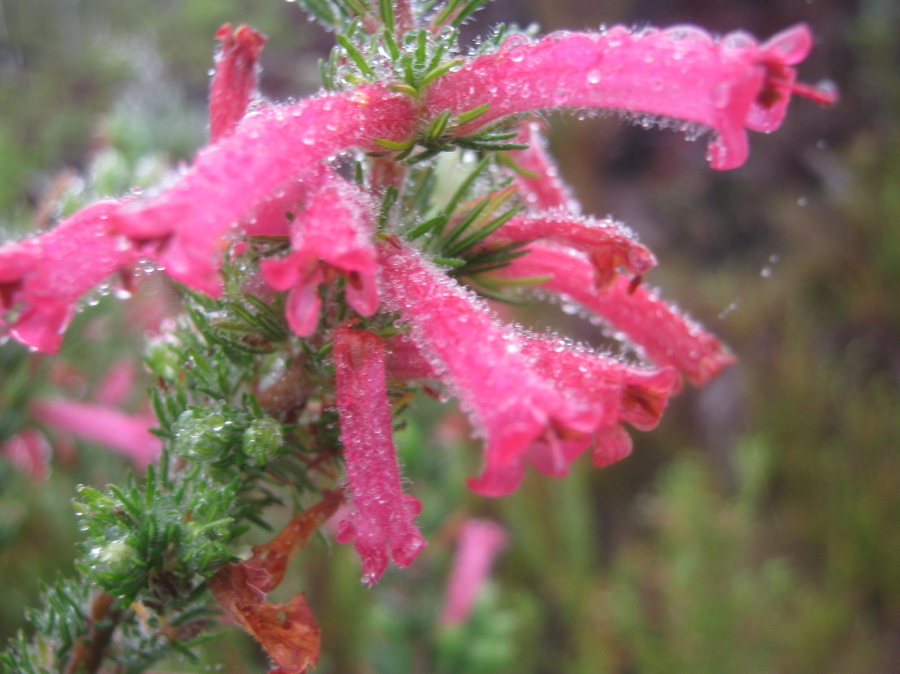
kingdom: Plantae
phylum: Tracheophyta
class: Magnoliopsida
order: Ericales
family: Ericaceae
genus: Erica
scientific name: Erica curviflora
